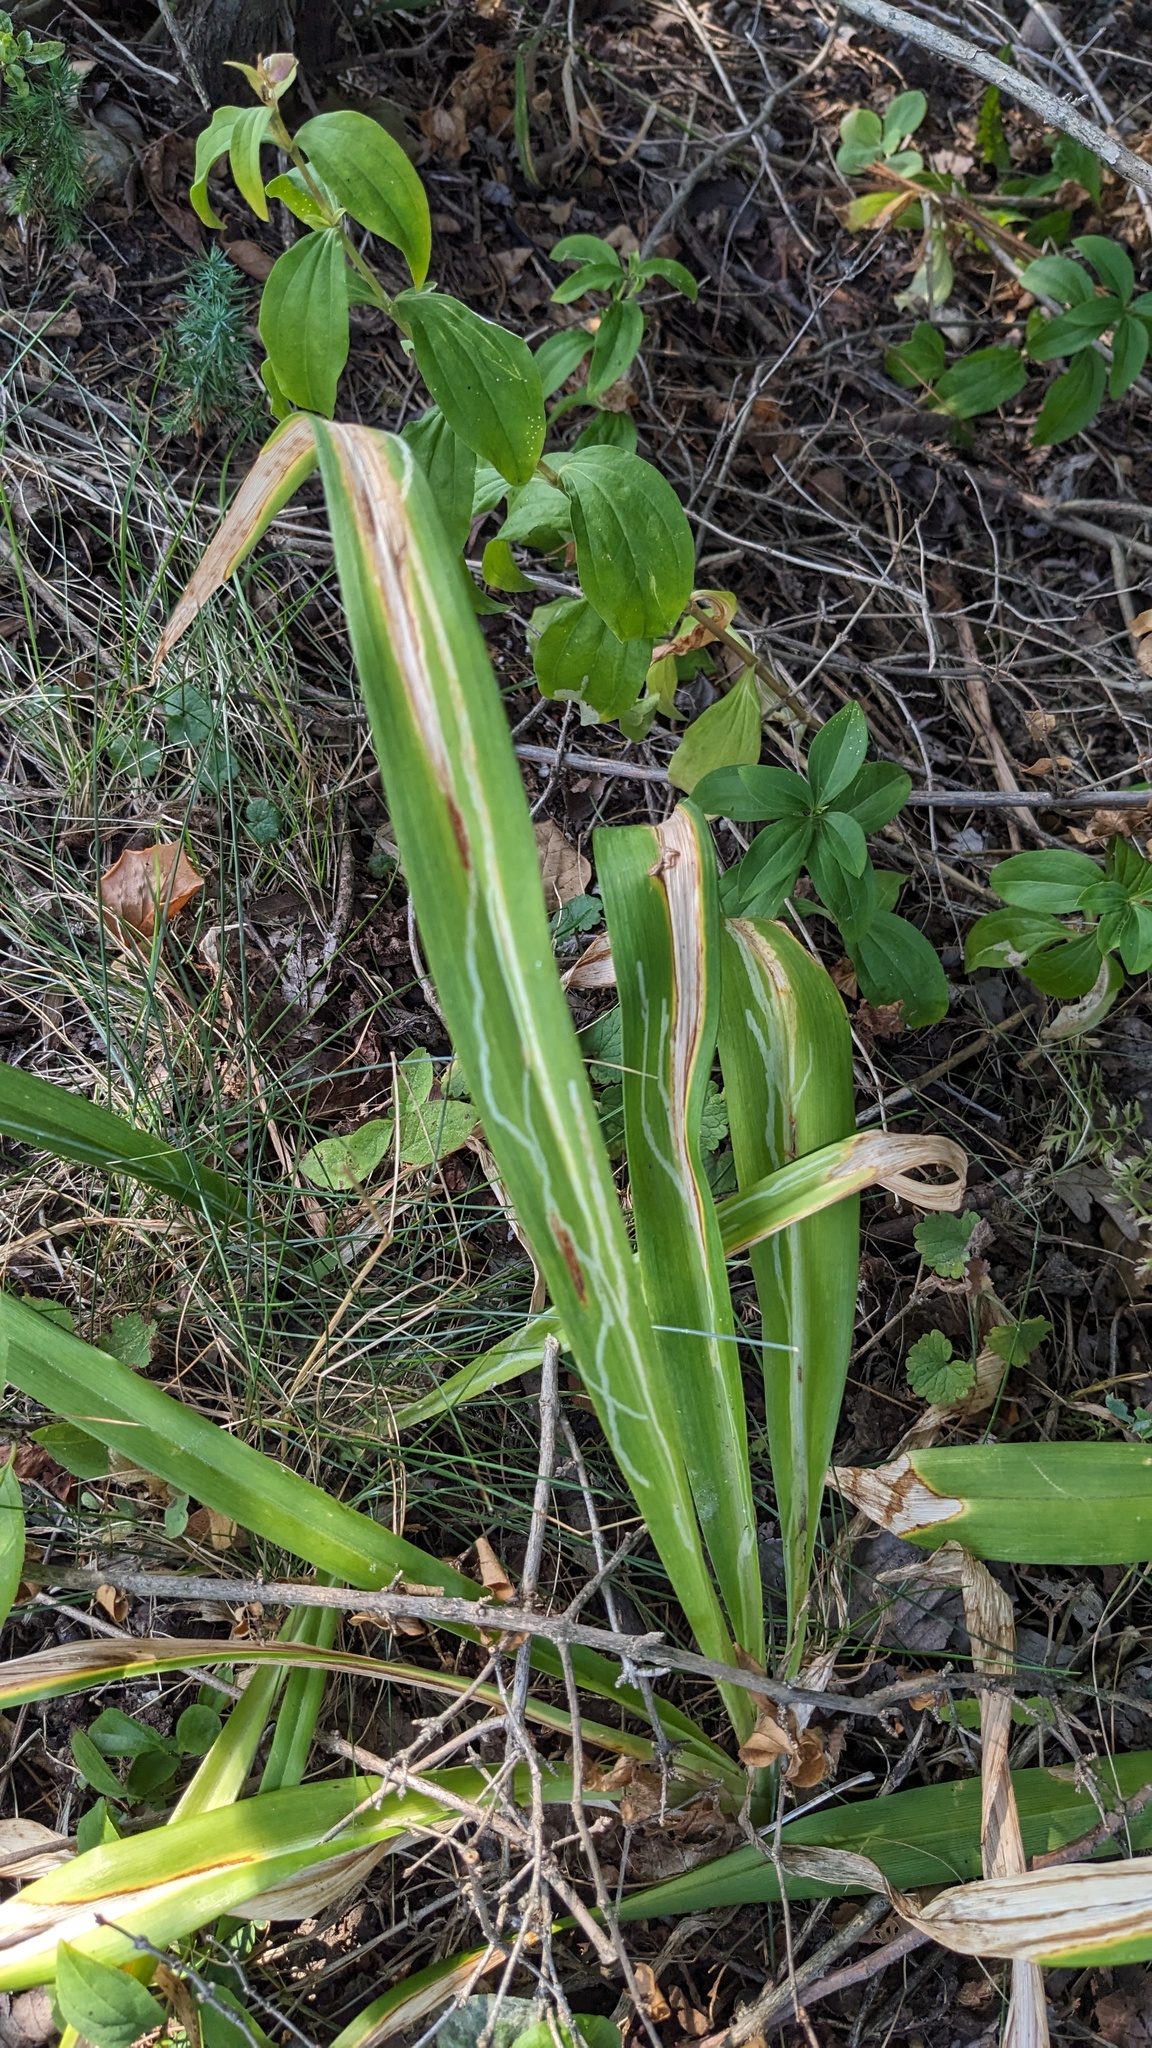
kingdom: Animalia
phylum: Arthropoda
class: Insecta
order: Diptera
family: Agromyzidae
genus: Ophiomyia
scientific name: Ophiomyia kwansonis
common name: Daylily leafminer
